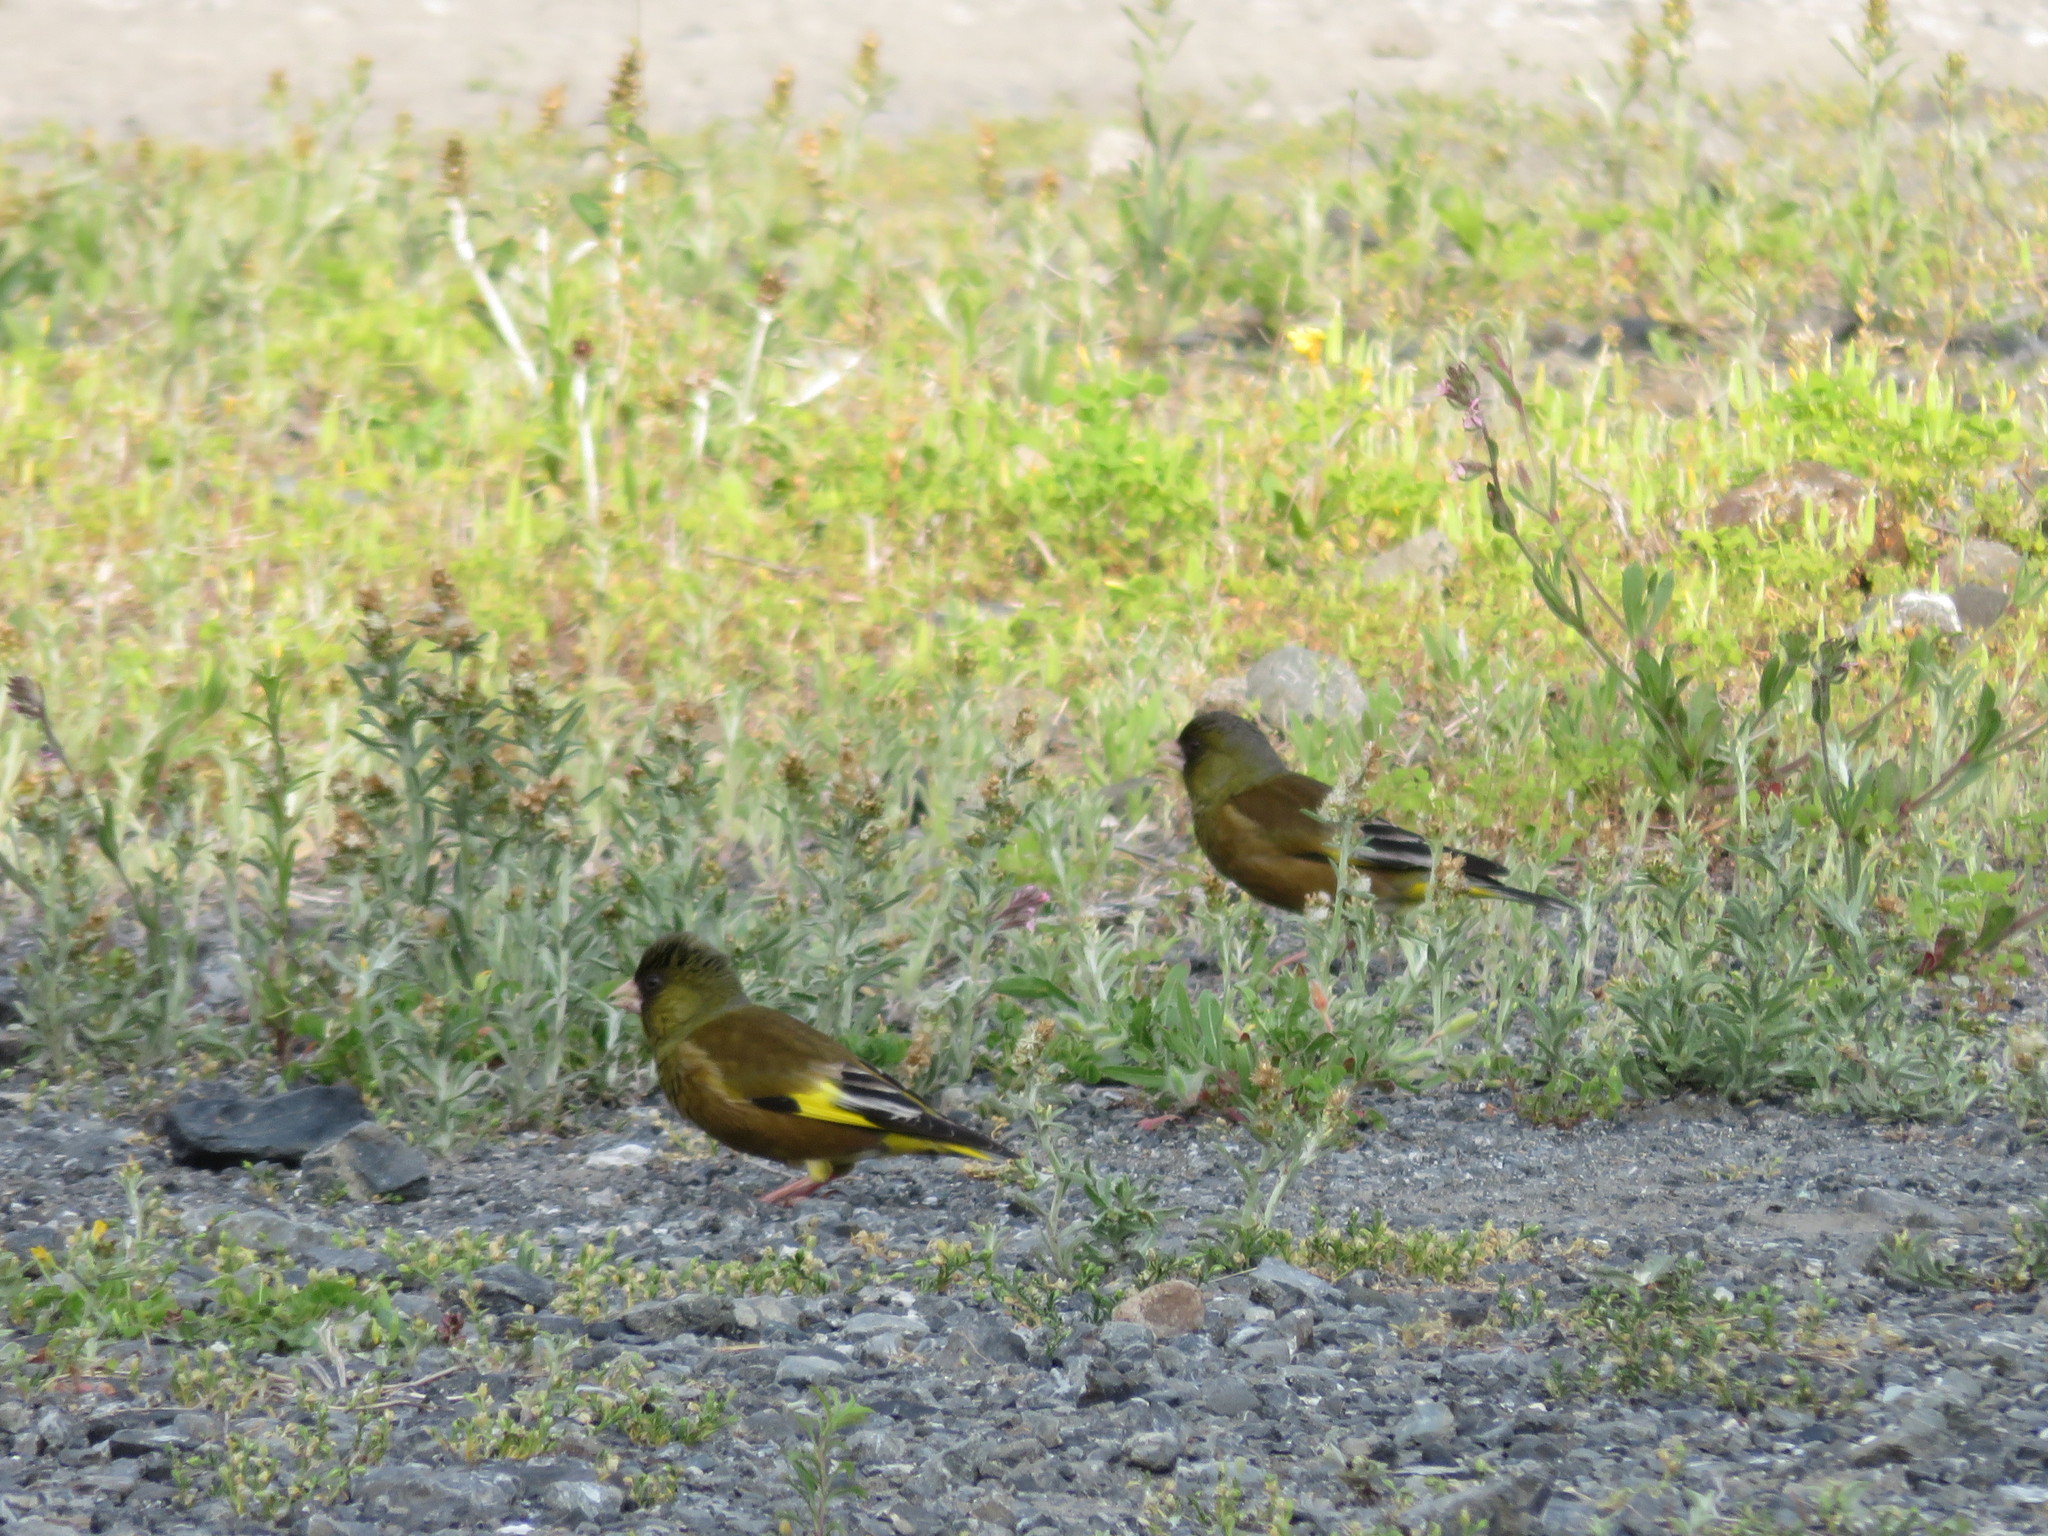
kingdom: Plantae
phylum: Tracheophyta
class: Liliopsida
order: Poales
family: Poaceae
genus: Chloris
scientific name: Chloris sinica
